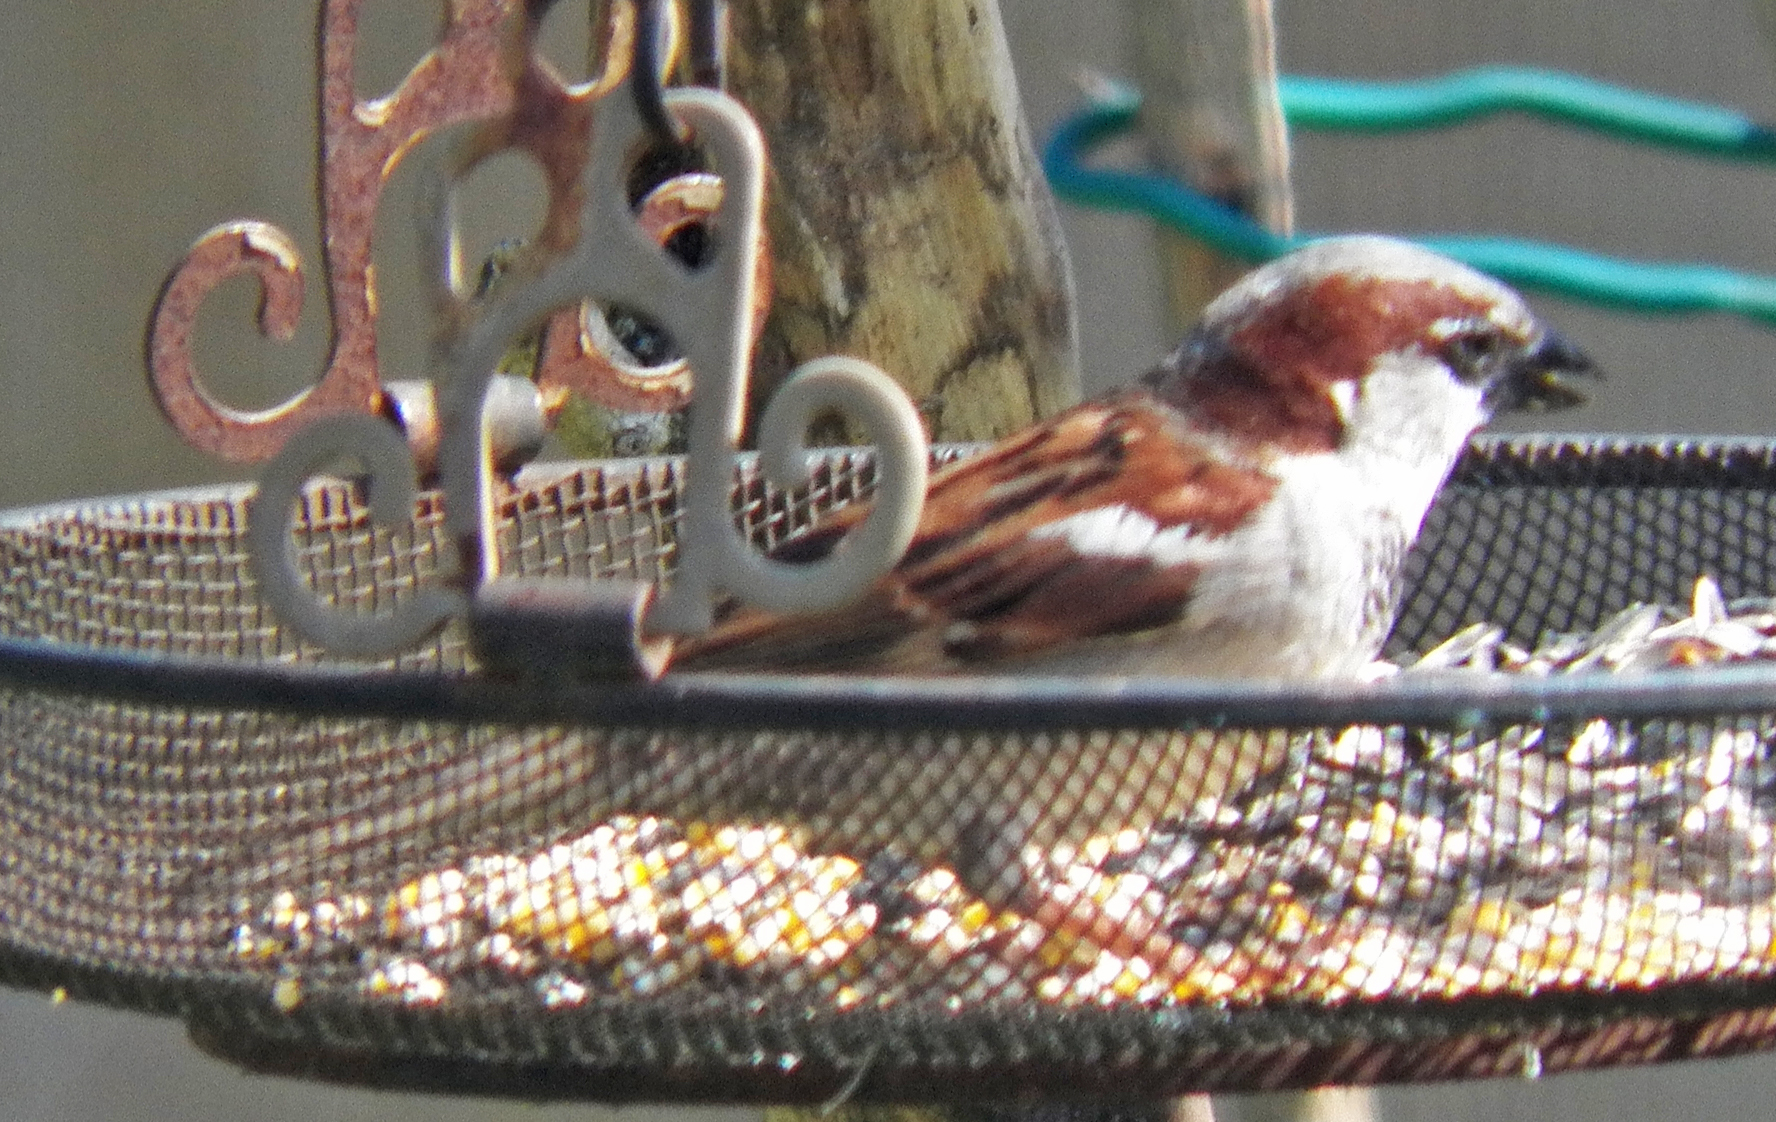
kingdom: Animalia
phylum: Chordata
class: Aves
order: Passeriformes
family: Passeridae
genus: Passer
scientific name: Passer domesticus
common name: House sparrow
